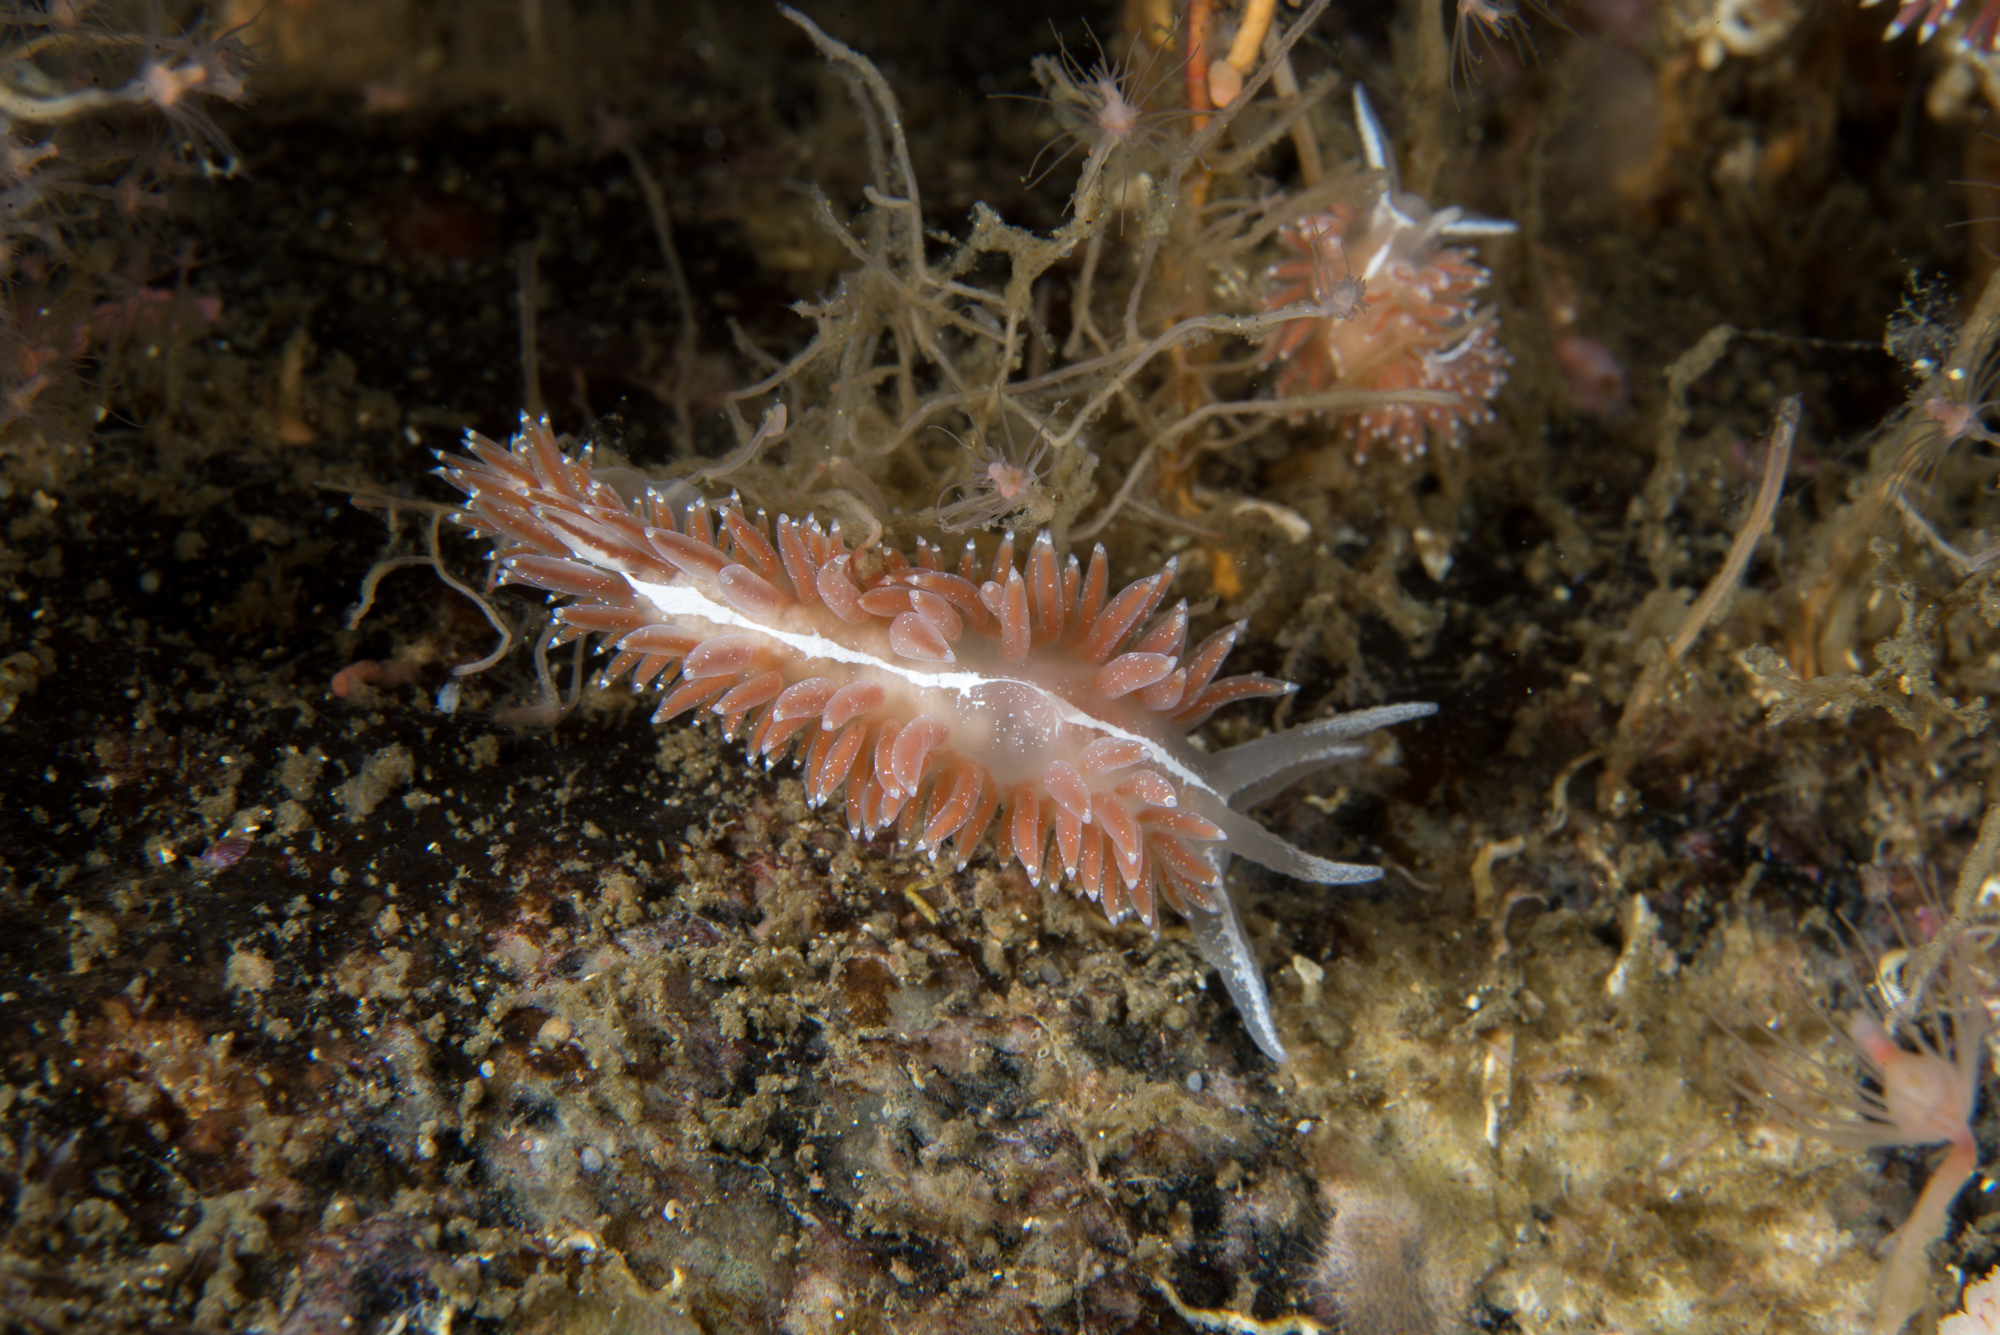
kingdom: Animalia
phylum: Mollusca
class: Gastropoda
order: Nudibranchia
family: Coryphellidae
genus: Coryphella
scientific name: Coryphella monicae
